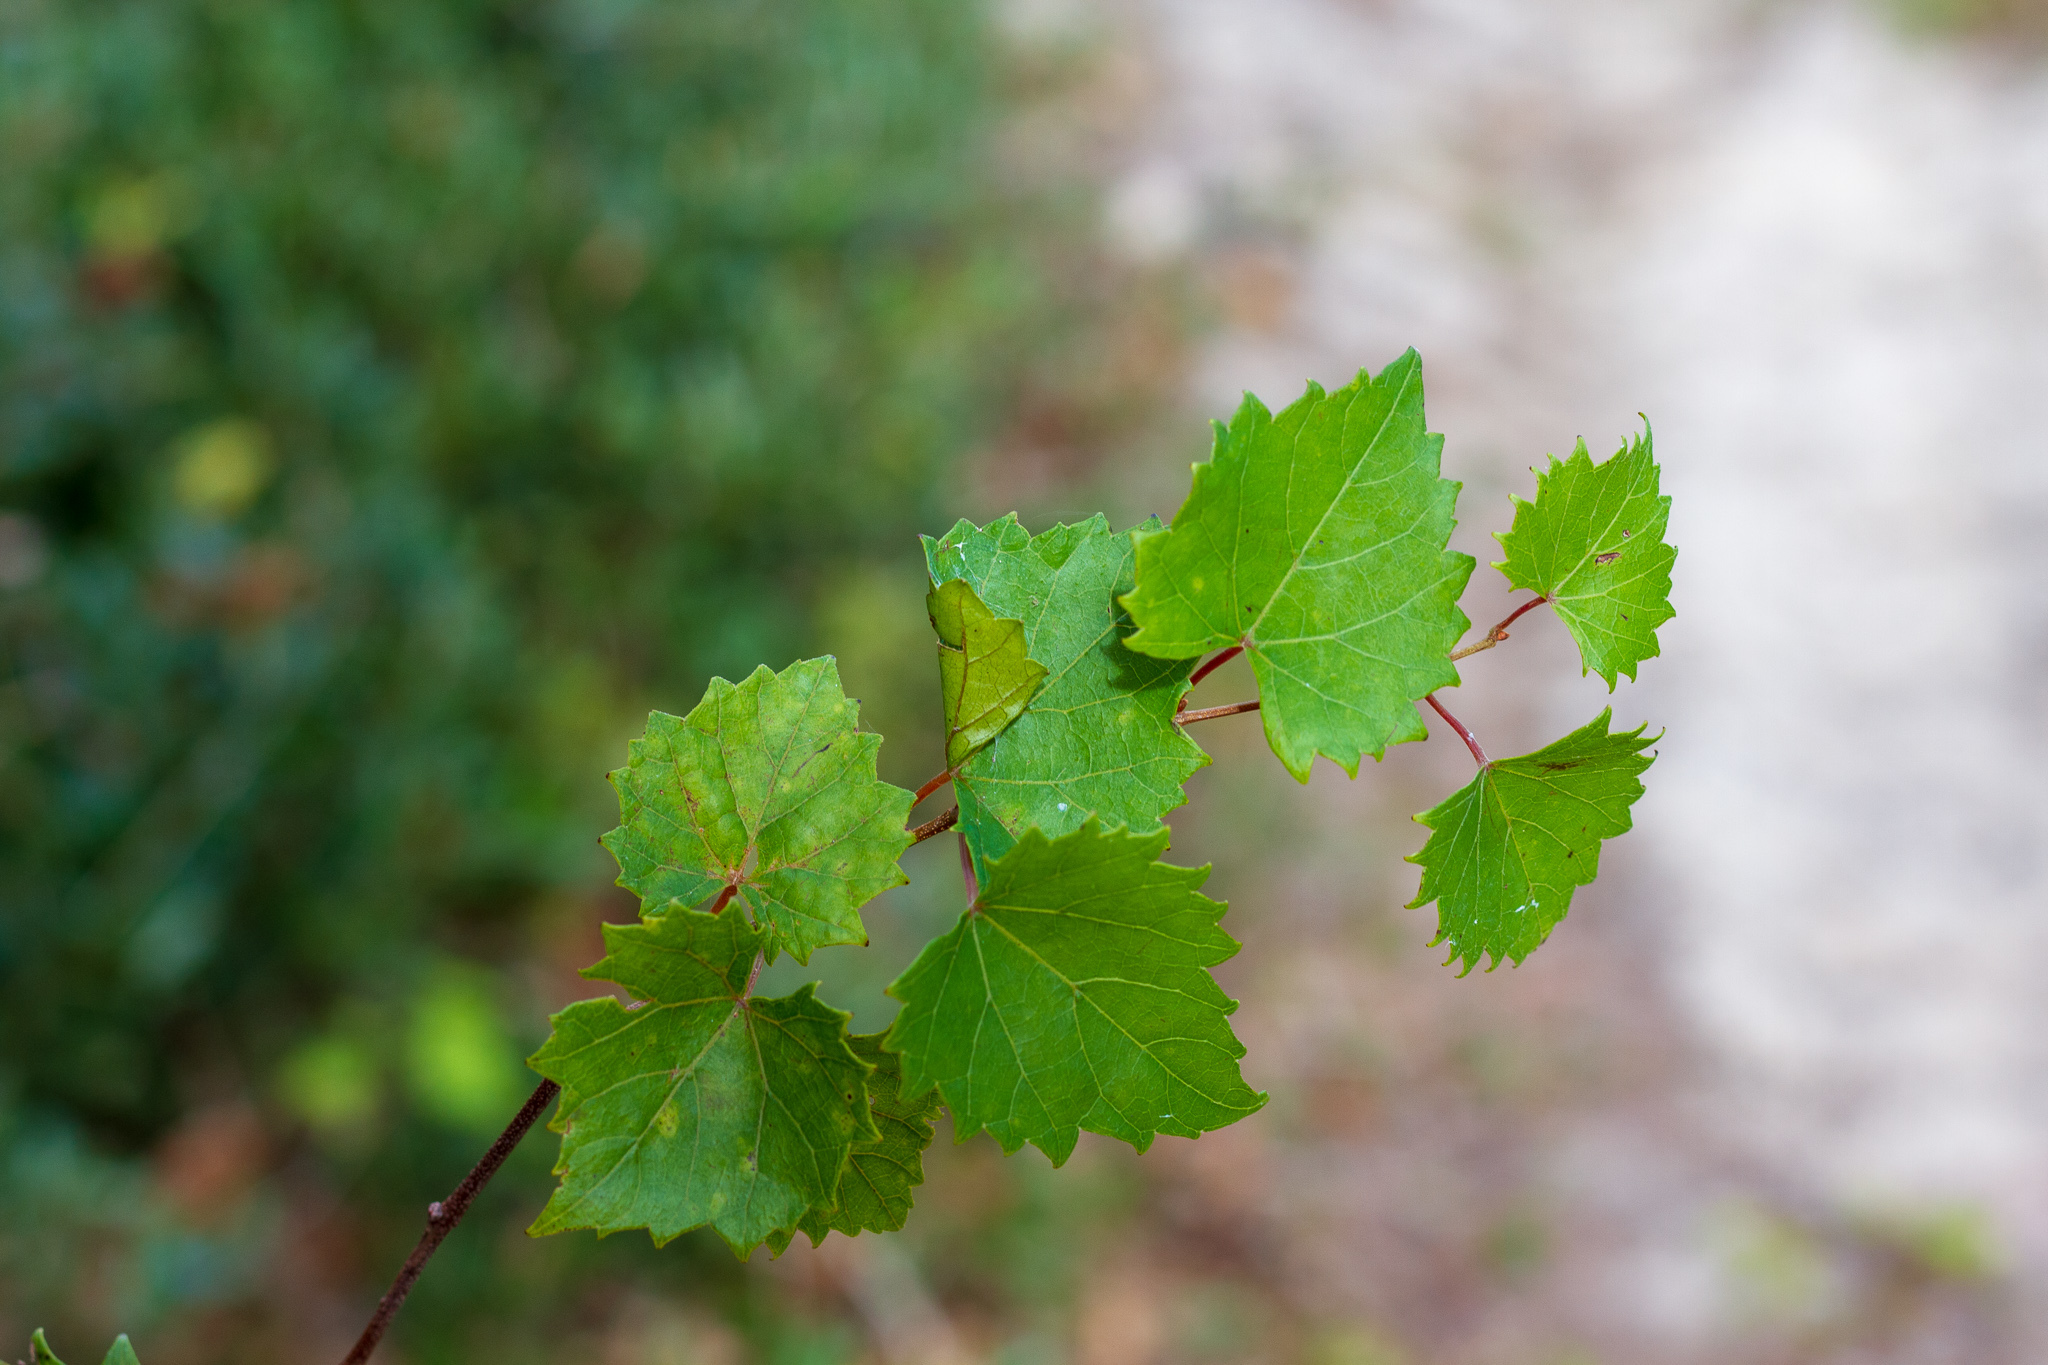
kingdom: Plantae
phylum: Tracheophyta
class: Magnoliopsida
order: Vitales
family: Vitaceae
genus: Vitis
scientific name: Vitis rotundifolia
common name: Muscadine grape
